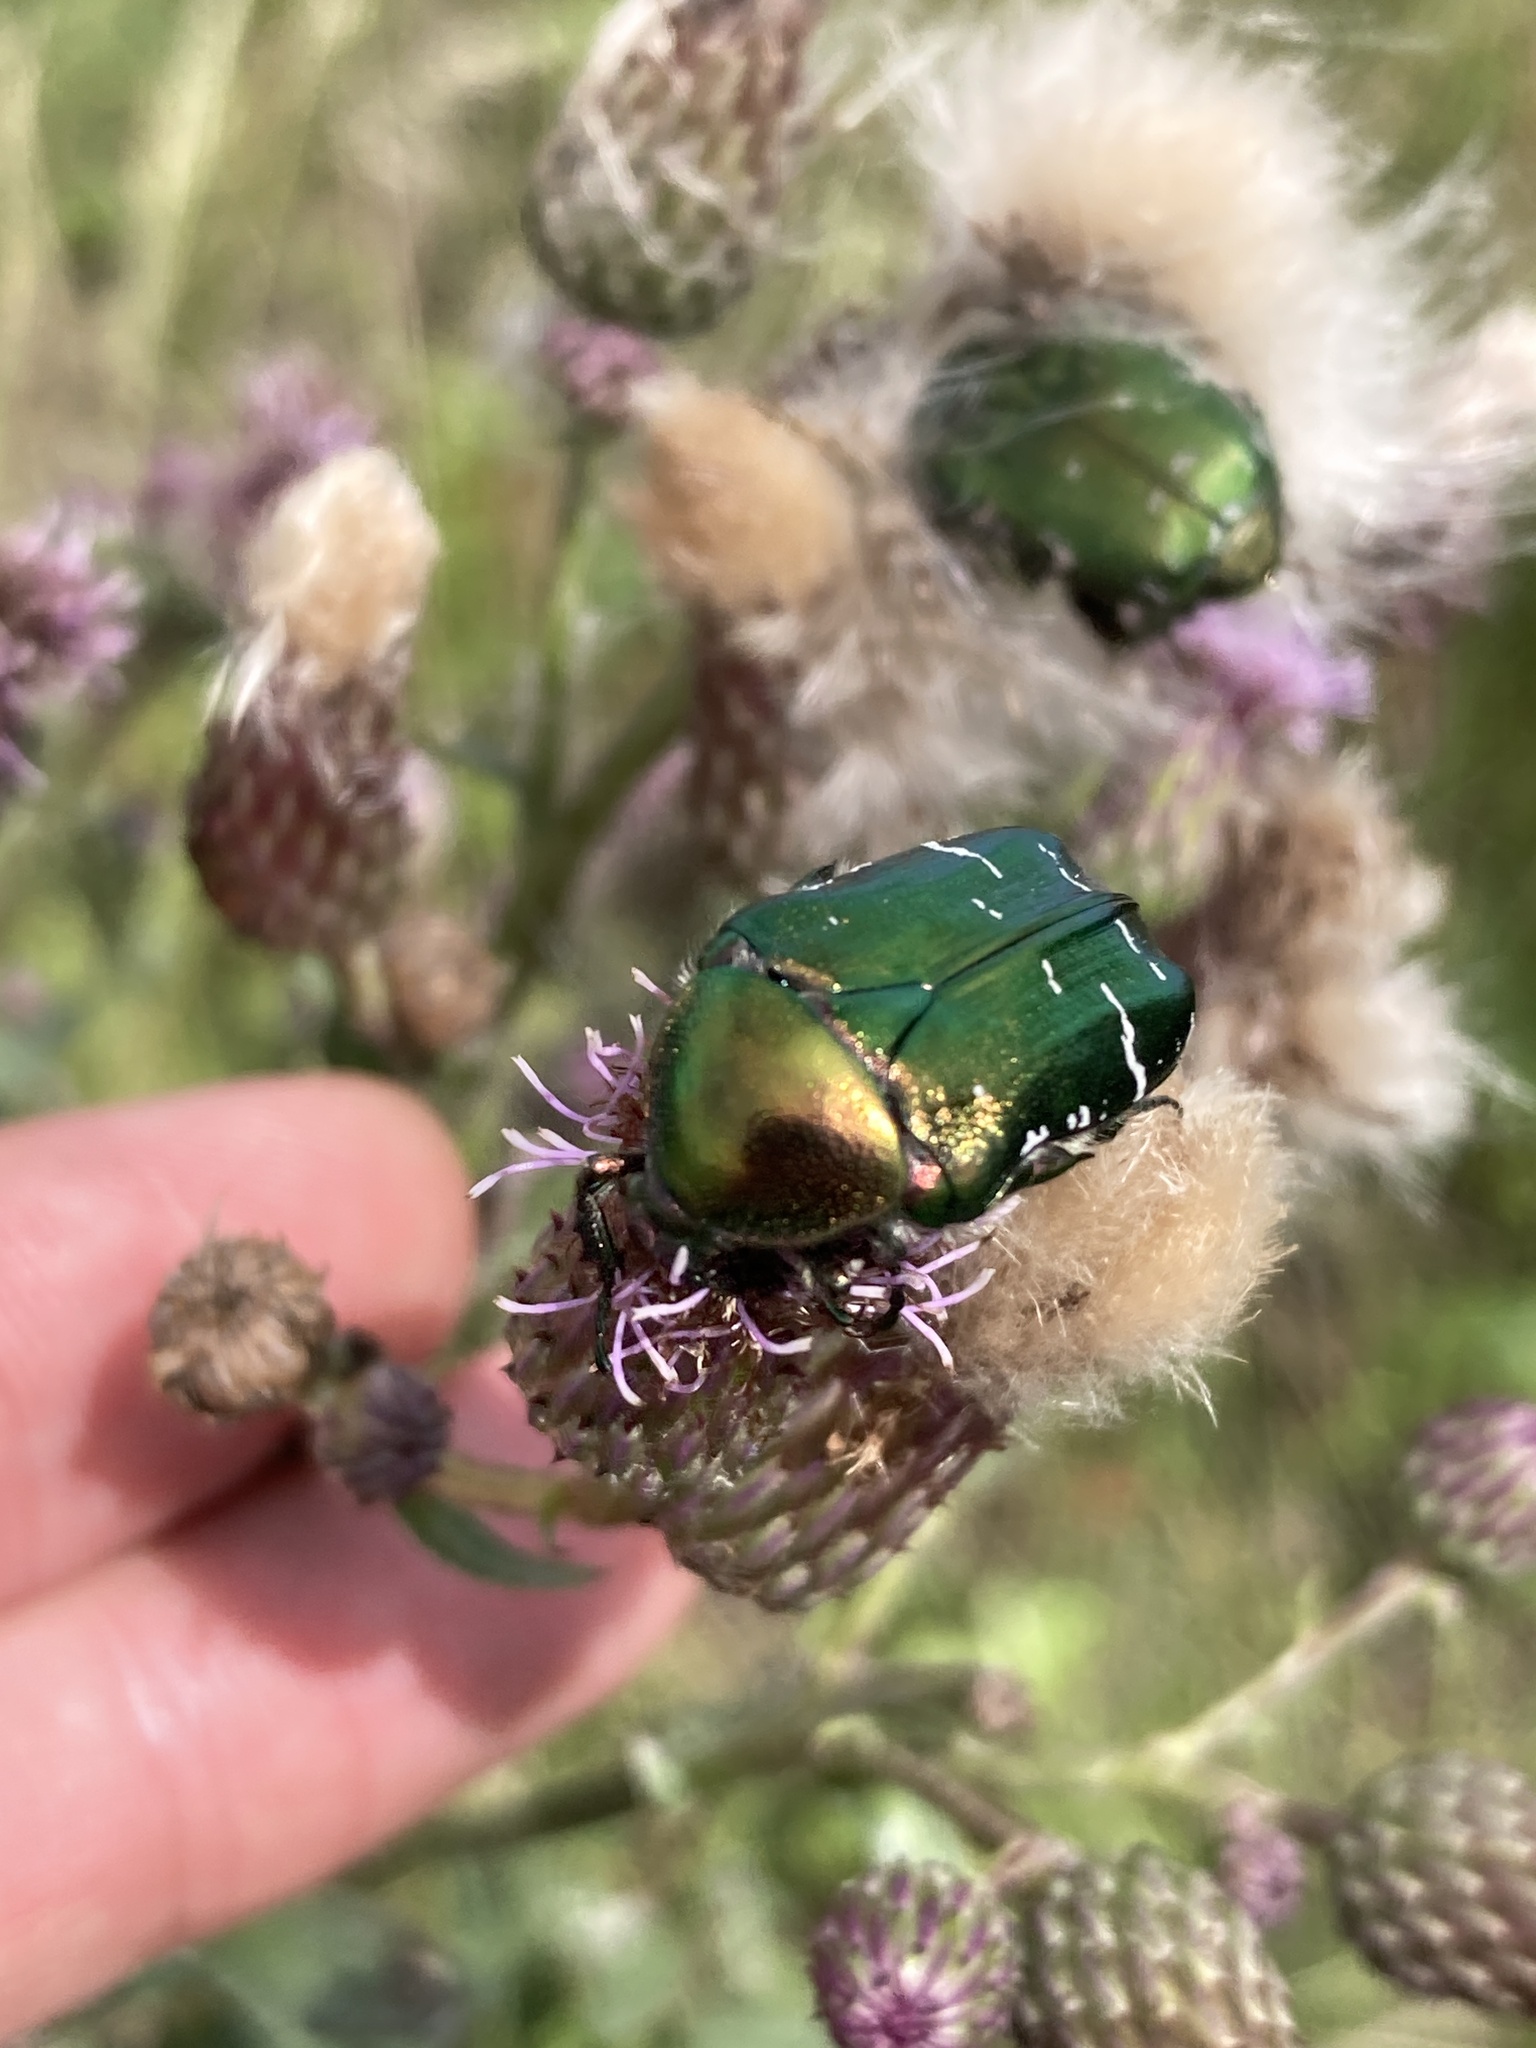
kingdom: Animalia
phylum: Arthropoda
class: Insecta
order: Coleoptera
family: Scarabaeidae
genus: Cetonia
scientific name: Cetonia aurata
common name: Rose chafer
